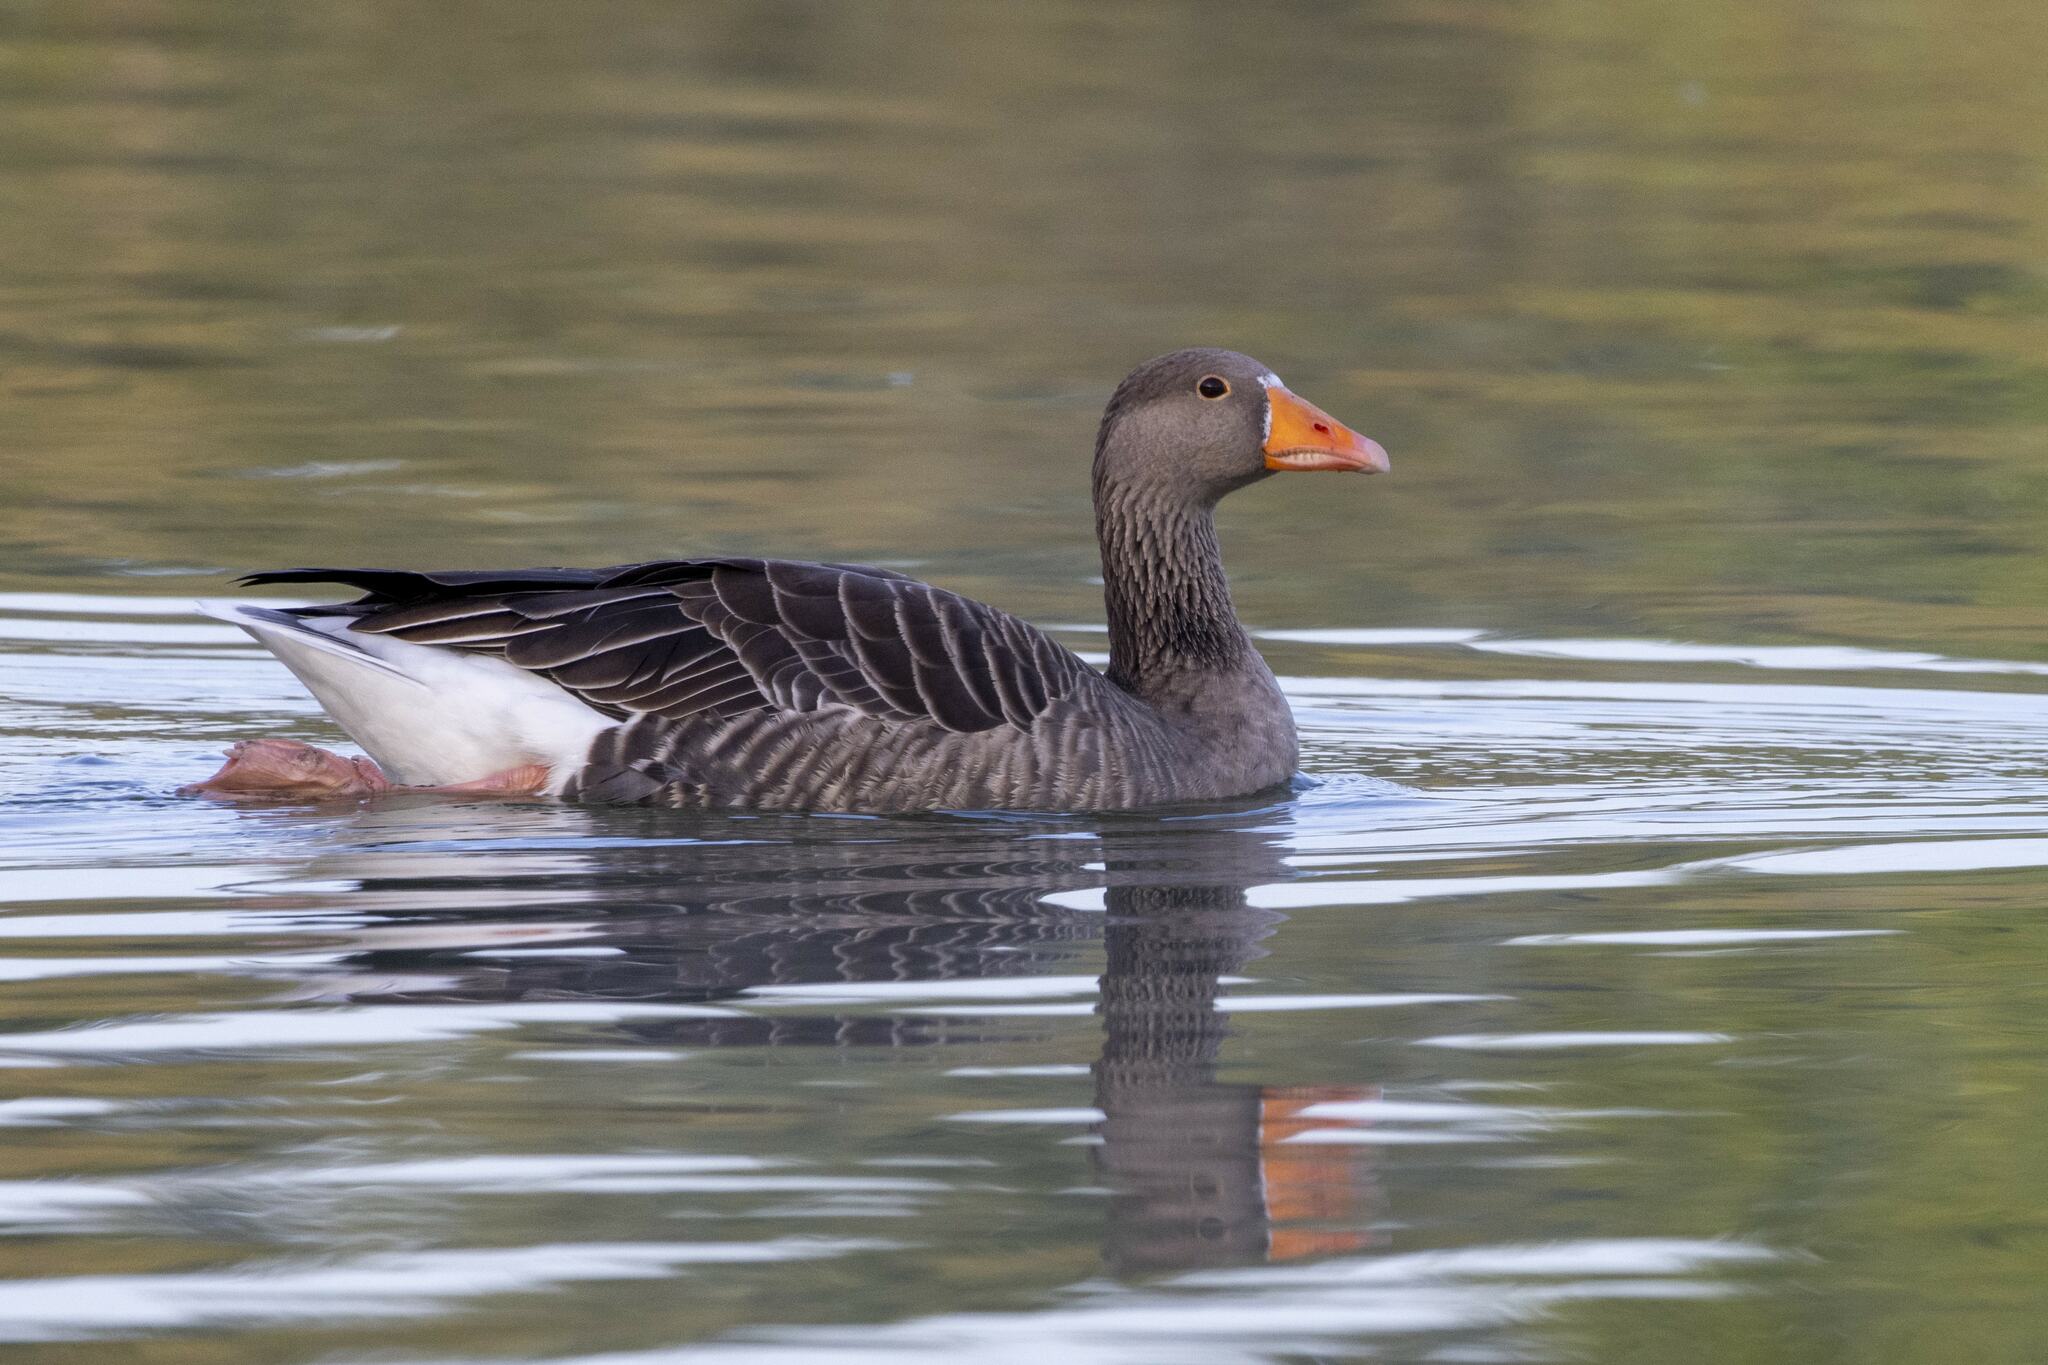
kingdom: Animalia
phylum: Chordata
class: Aves
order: Anseriformes
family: Anatidae
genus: Anser
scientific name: Anser anser
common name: Greylag goose
